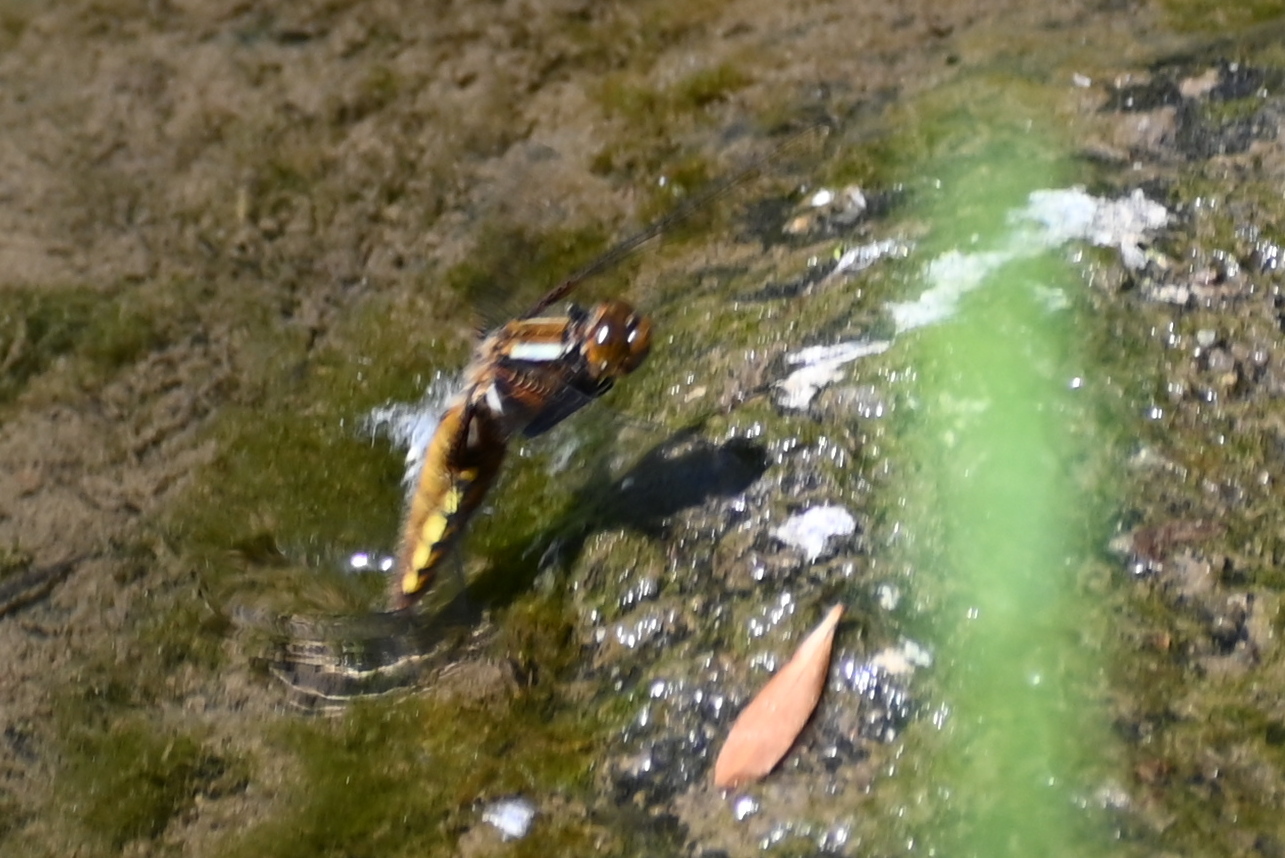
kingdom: Animalia
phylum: Arthropoda
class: Insecta
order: Odonata
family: Libellulidae
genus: Libellula
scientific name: Libellula depressa
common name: Broad-bodied chaser
